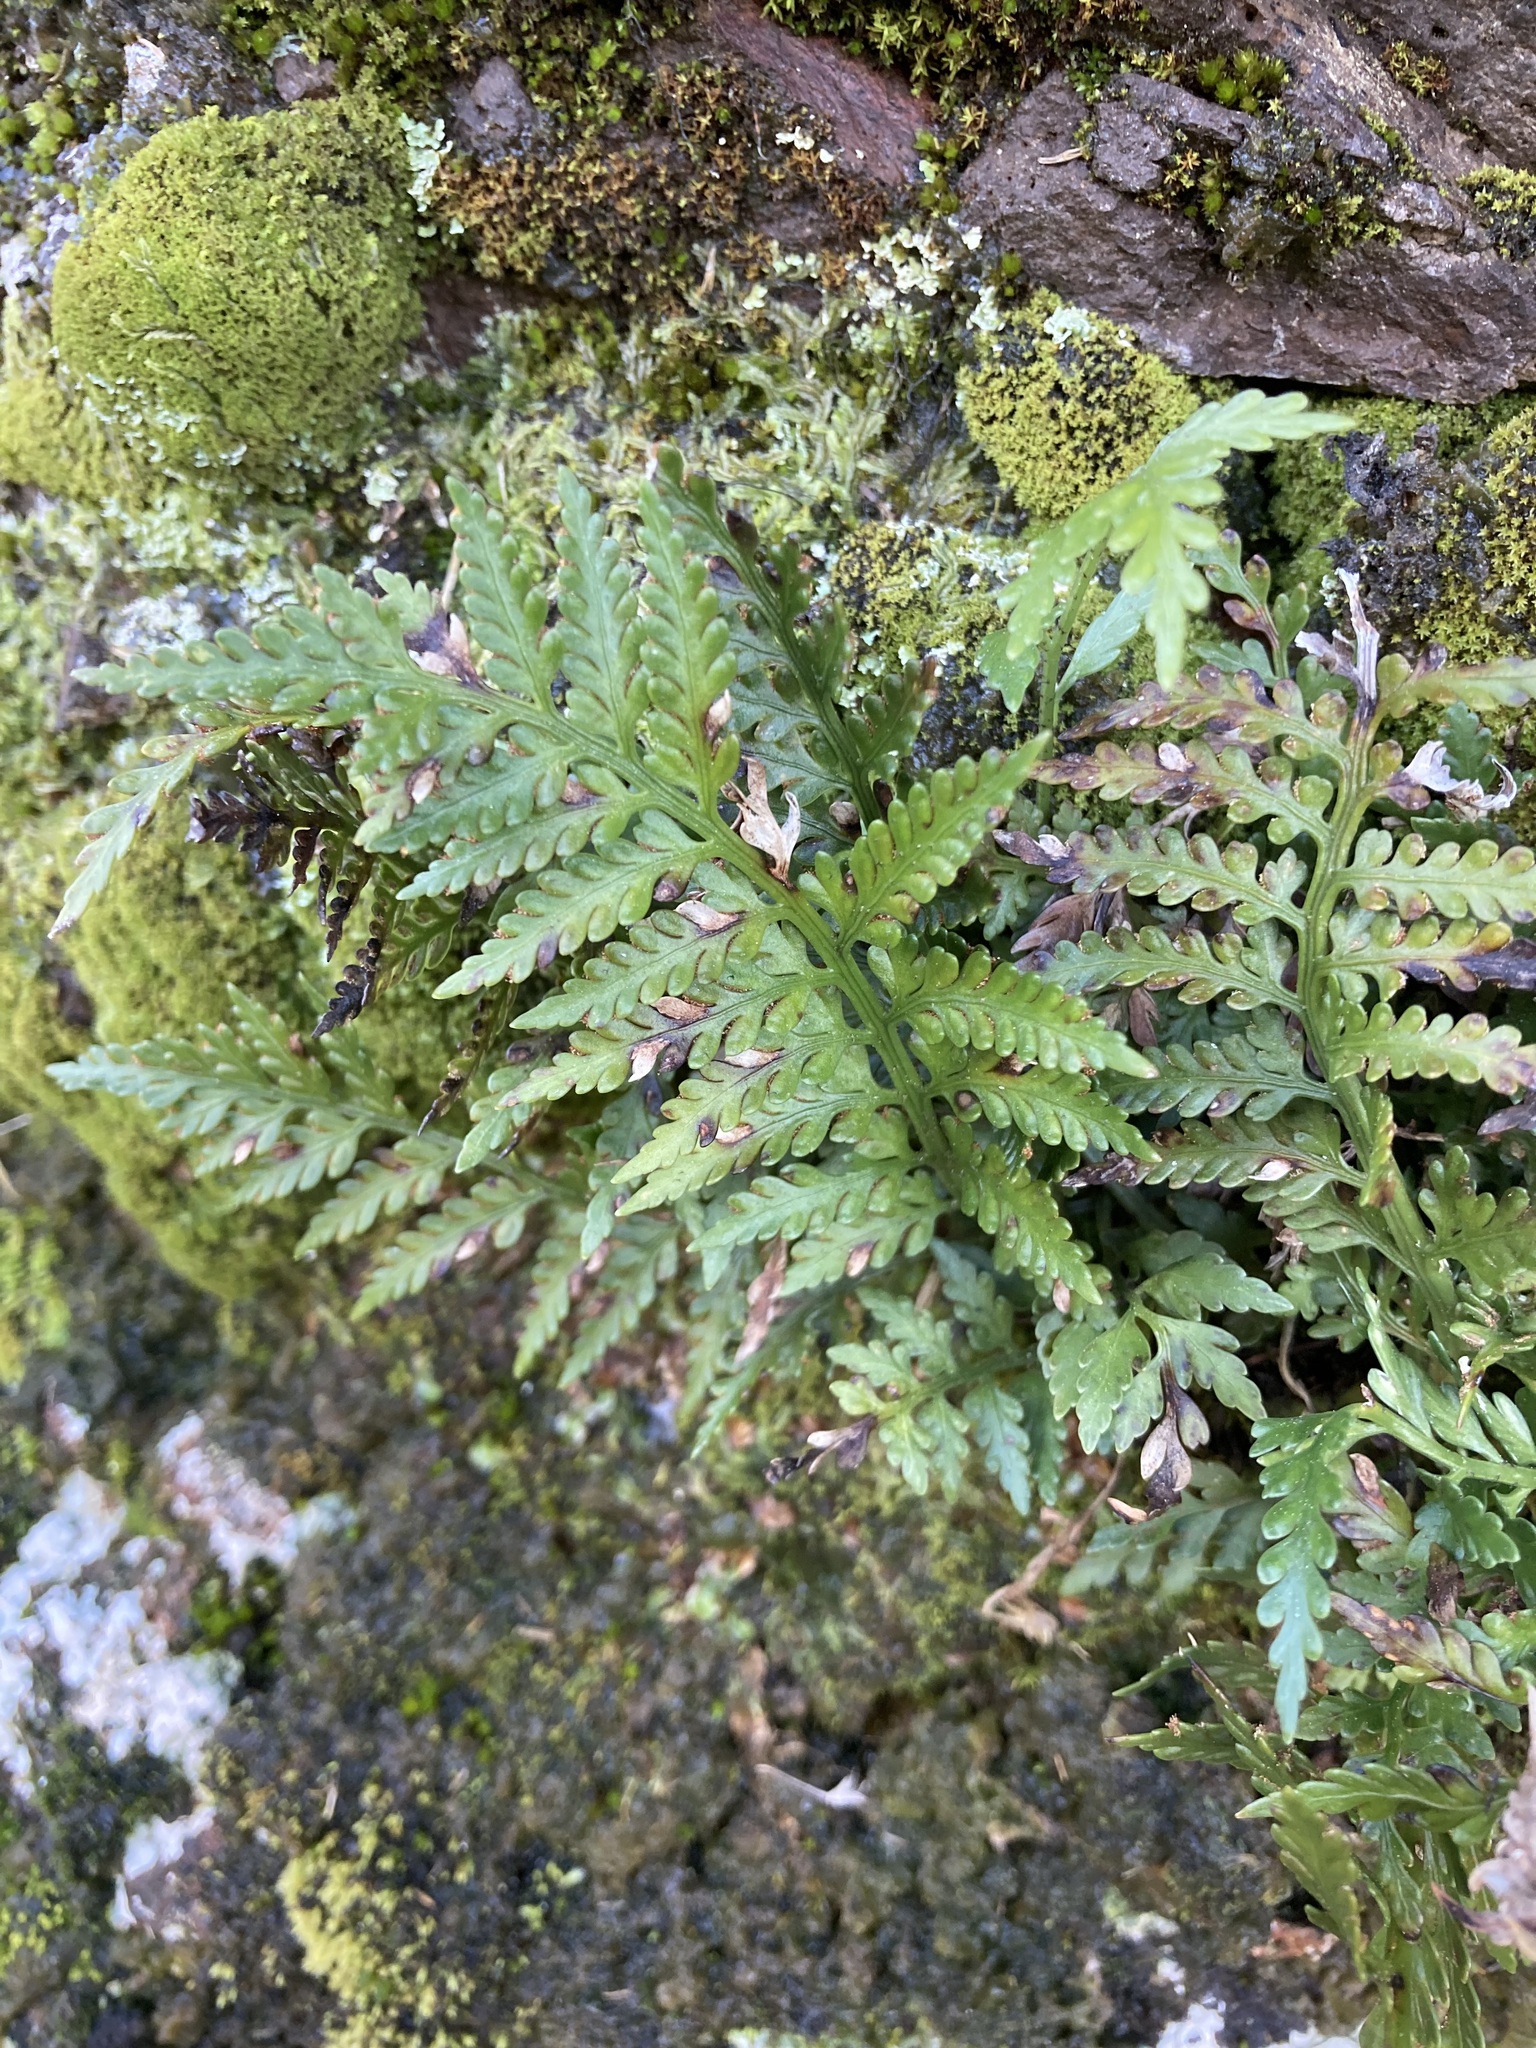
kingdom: Plantae
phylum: Tracheophyta
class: Polypodiopsida
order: Polypodiales
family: Aspleniaceae
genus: Asplenium
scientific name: Asplenium appendiculatum
